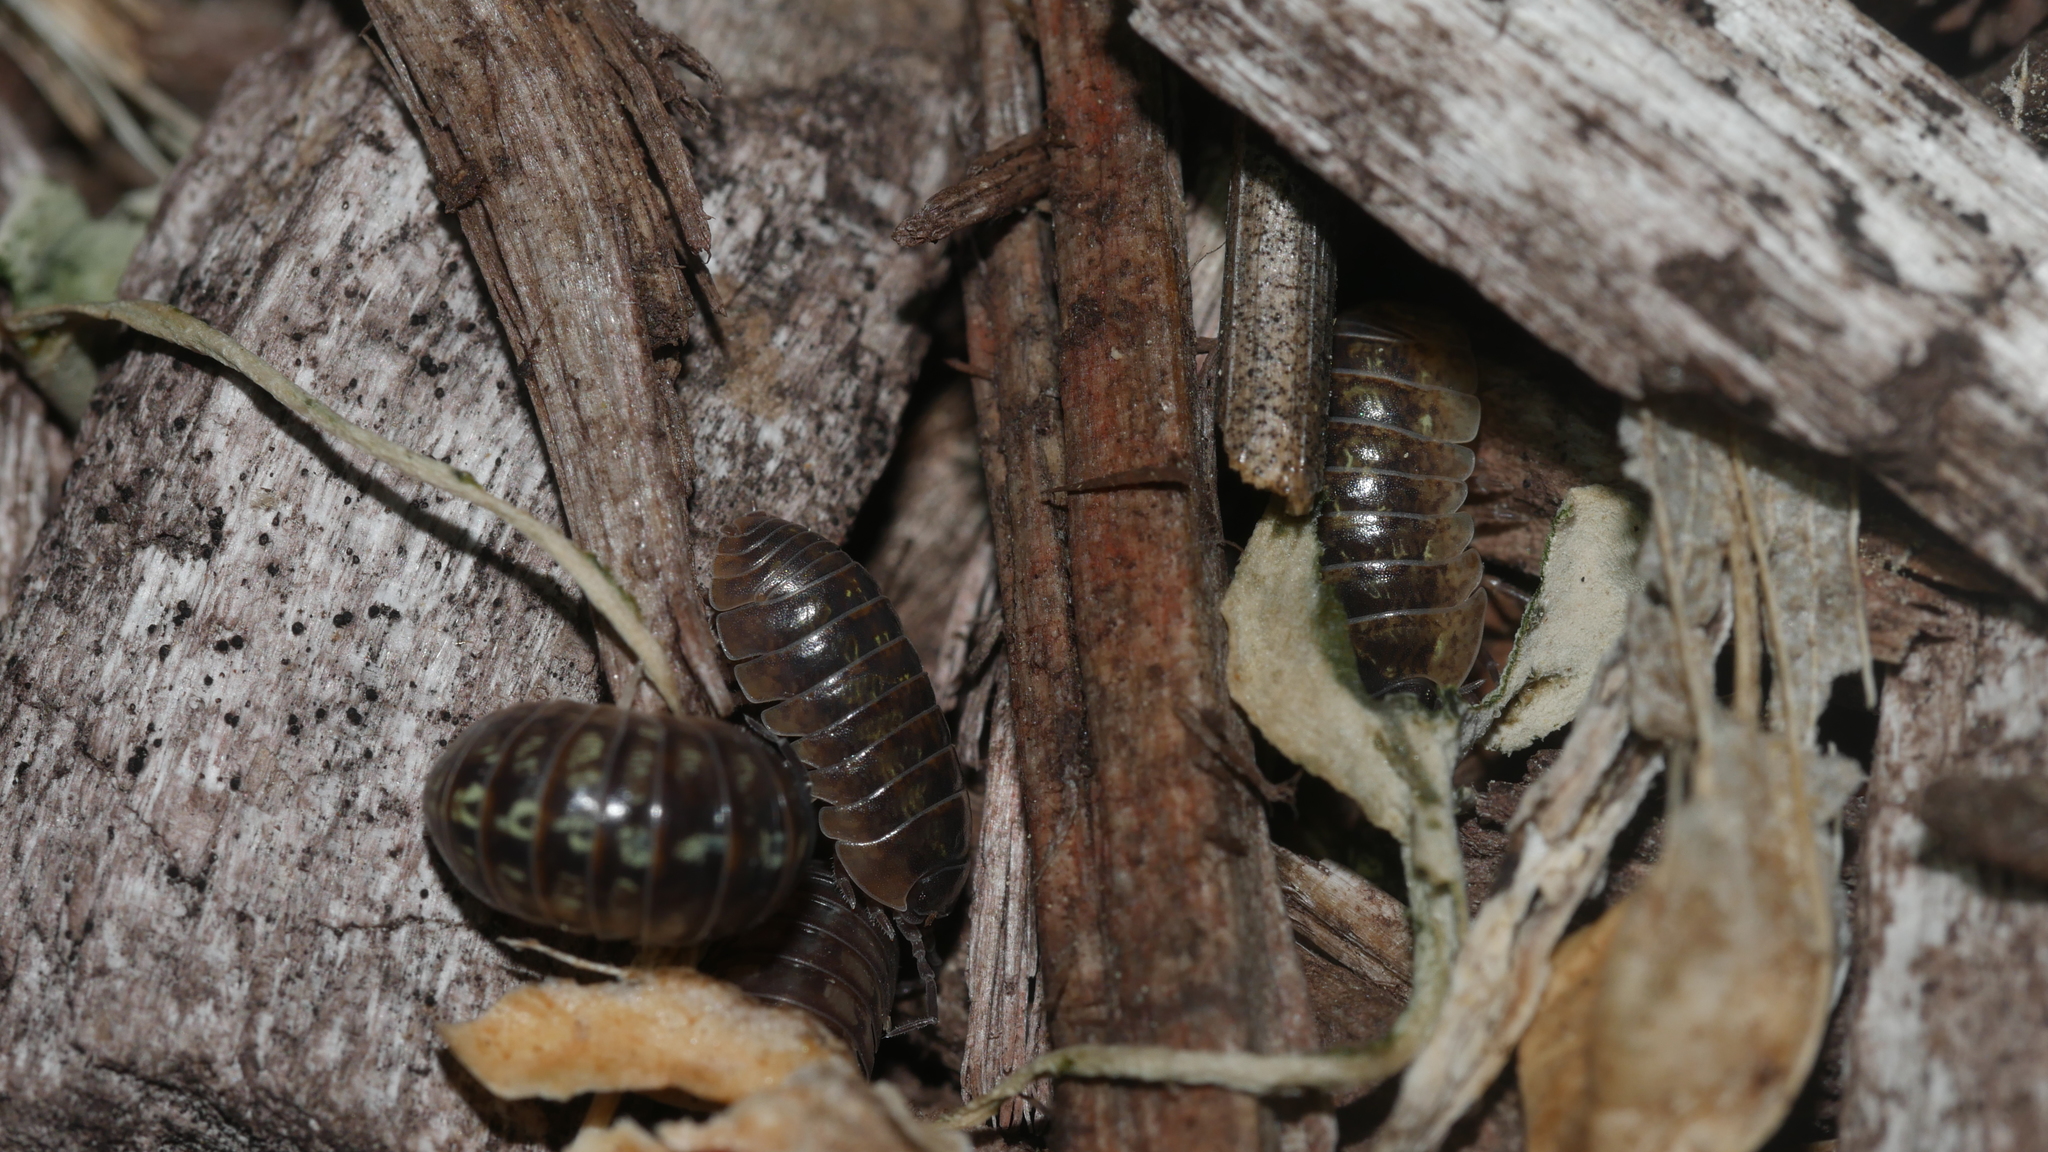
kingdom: Animalia
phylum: Arthropoda
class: Malacostraca
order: Isopoda
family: Armadillidiidae
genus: Armadillidium
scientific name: Armadillidium vulgare
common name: Common pill woodlouse
